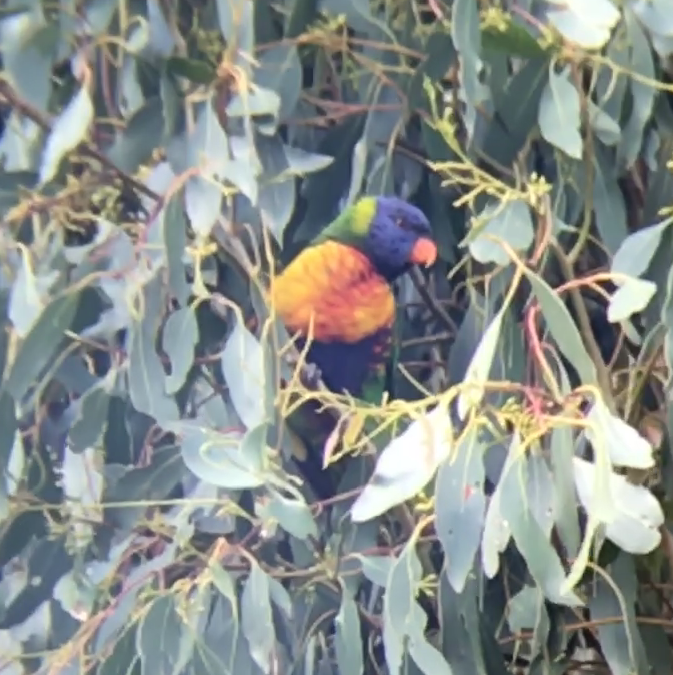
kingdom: Animalia
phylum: Chordata
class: Aves
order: Psittaciformes
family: Psittacidae
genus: Trichoglossus
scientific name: Trichoglossus haematodus
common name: Coconut lorikeet
